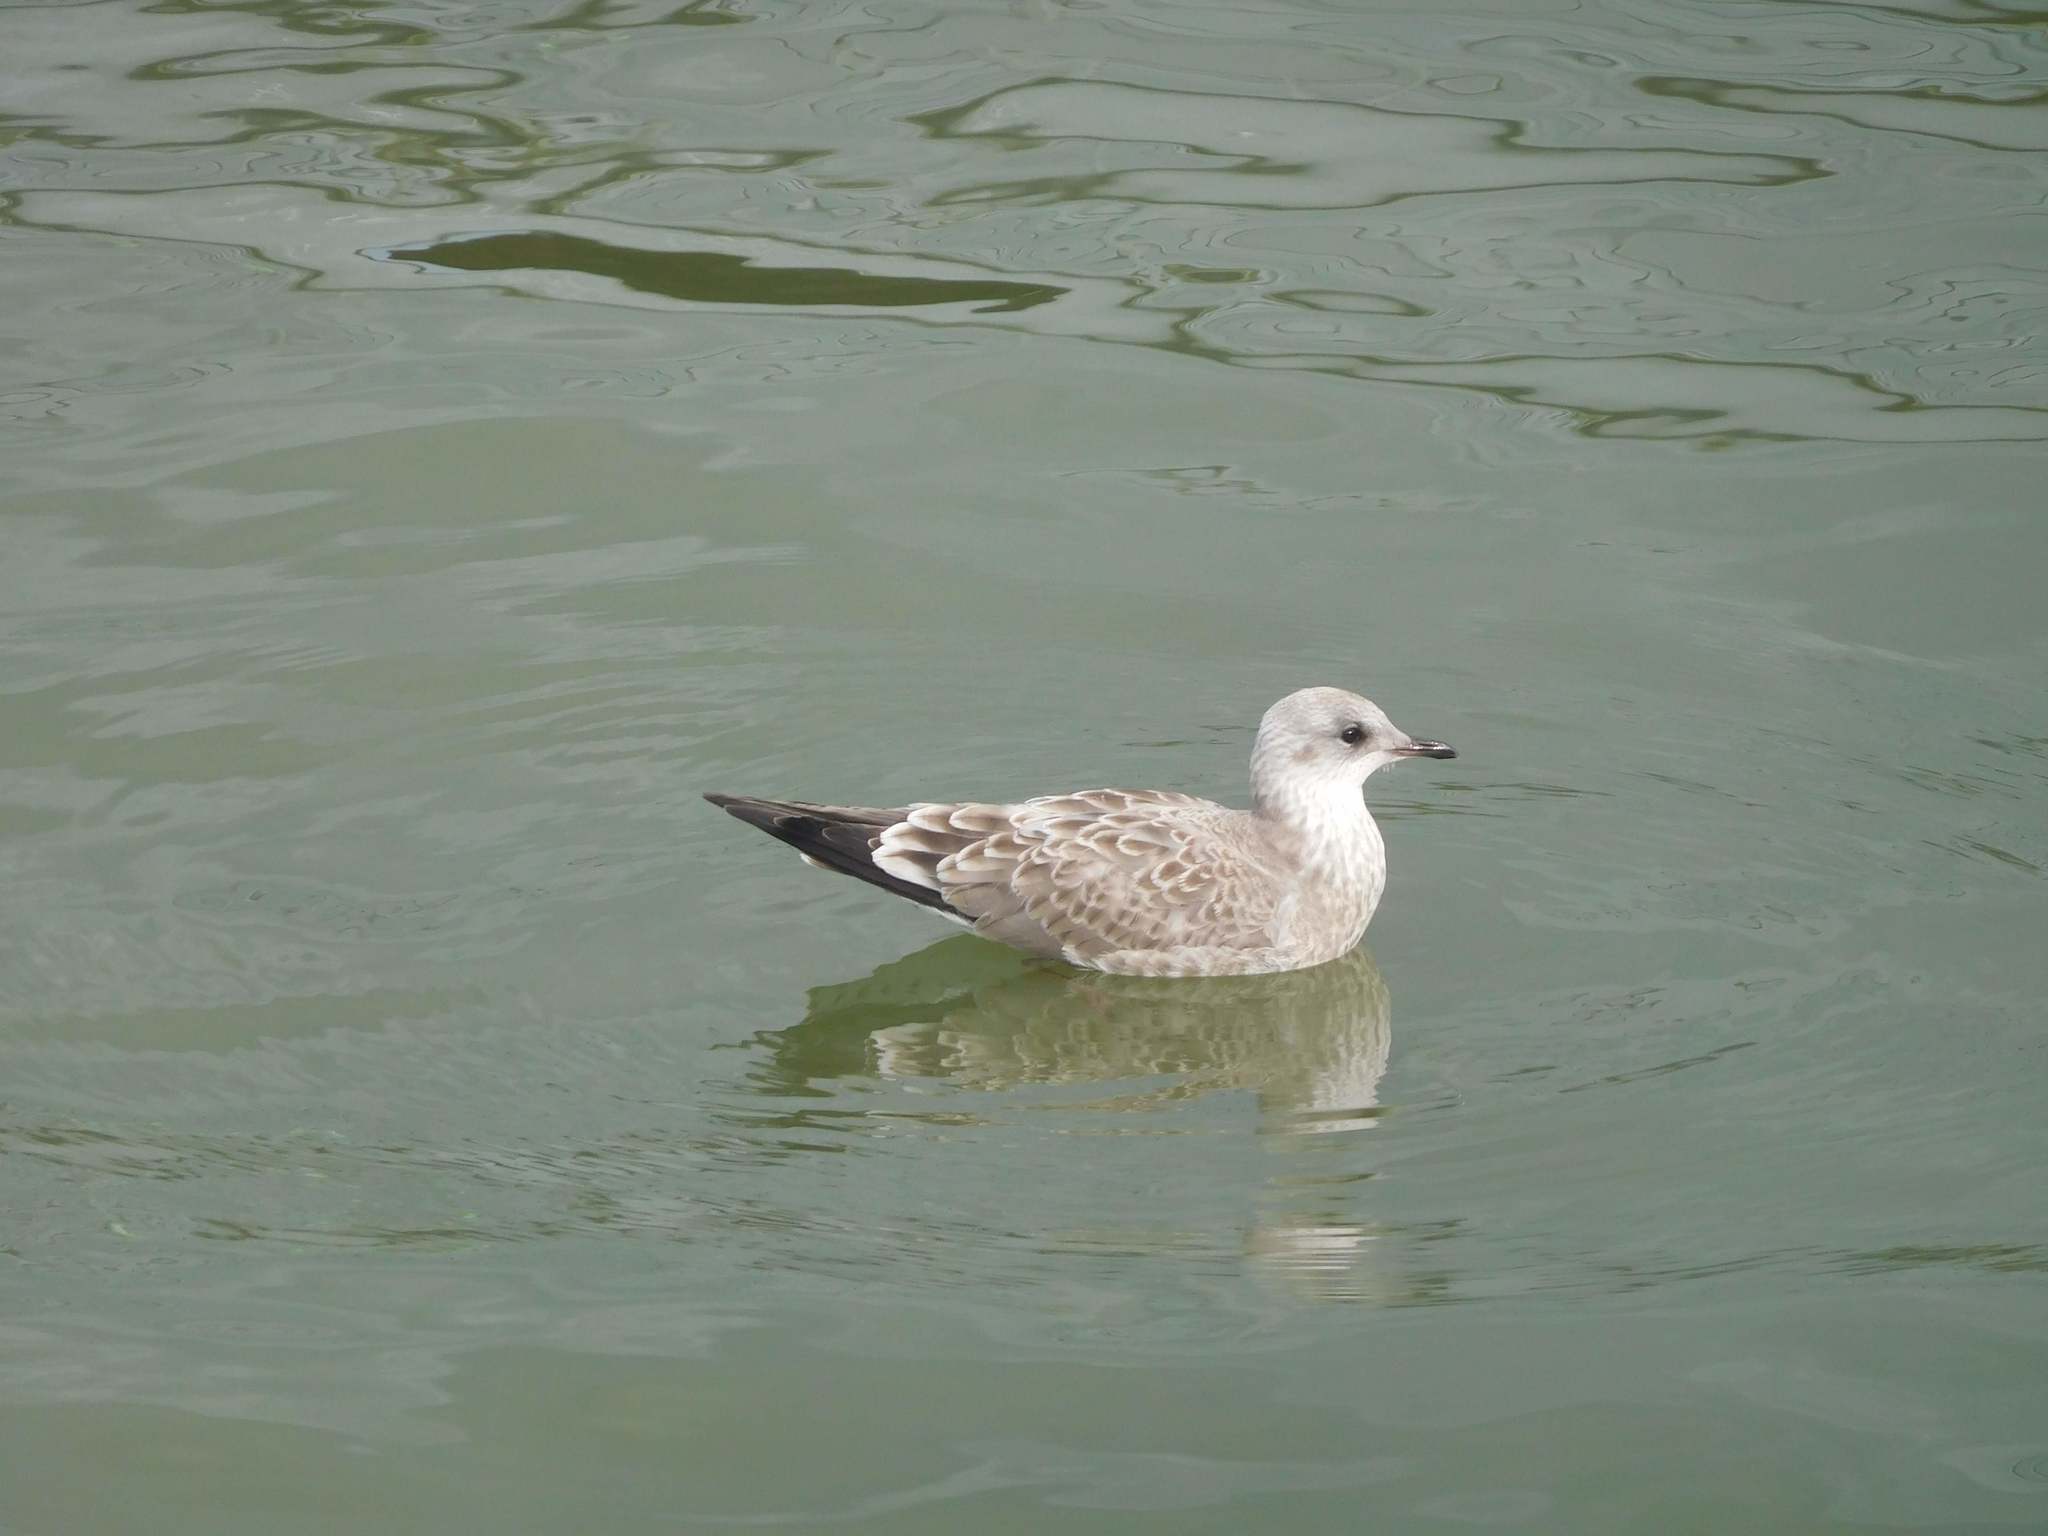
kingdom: Animalia
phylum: Chordata
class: Aves
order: Charadriiformes
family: Laridae
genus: Larus
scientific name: Larus canus
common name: Mew gull
